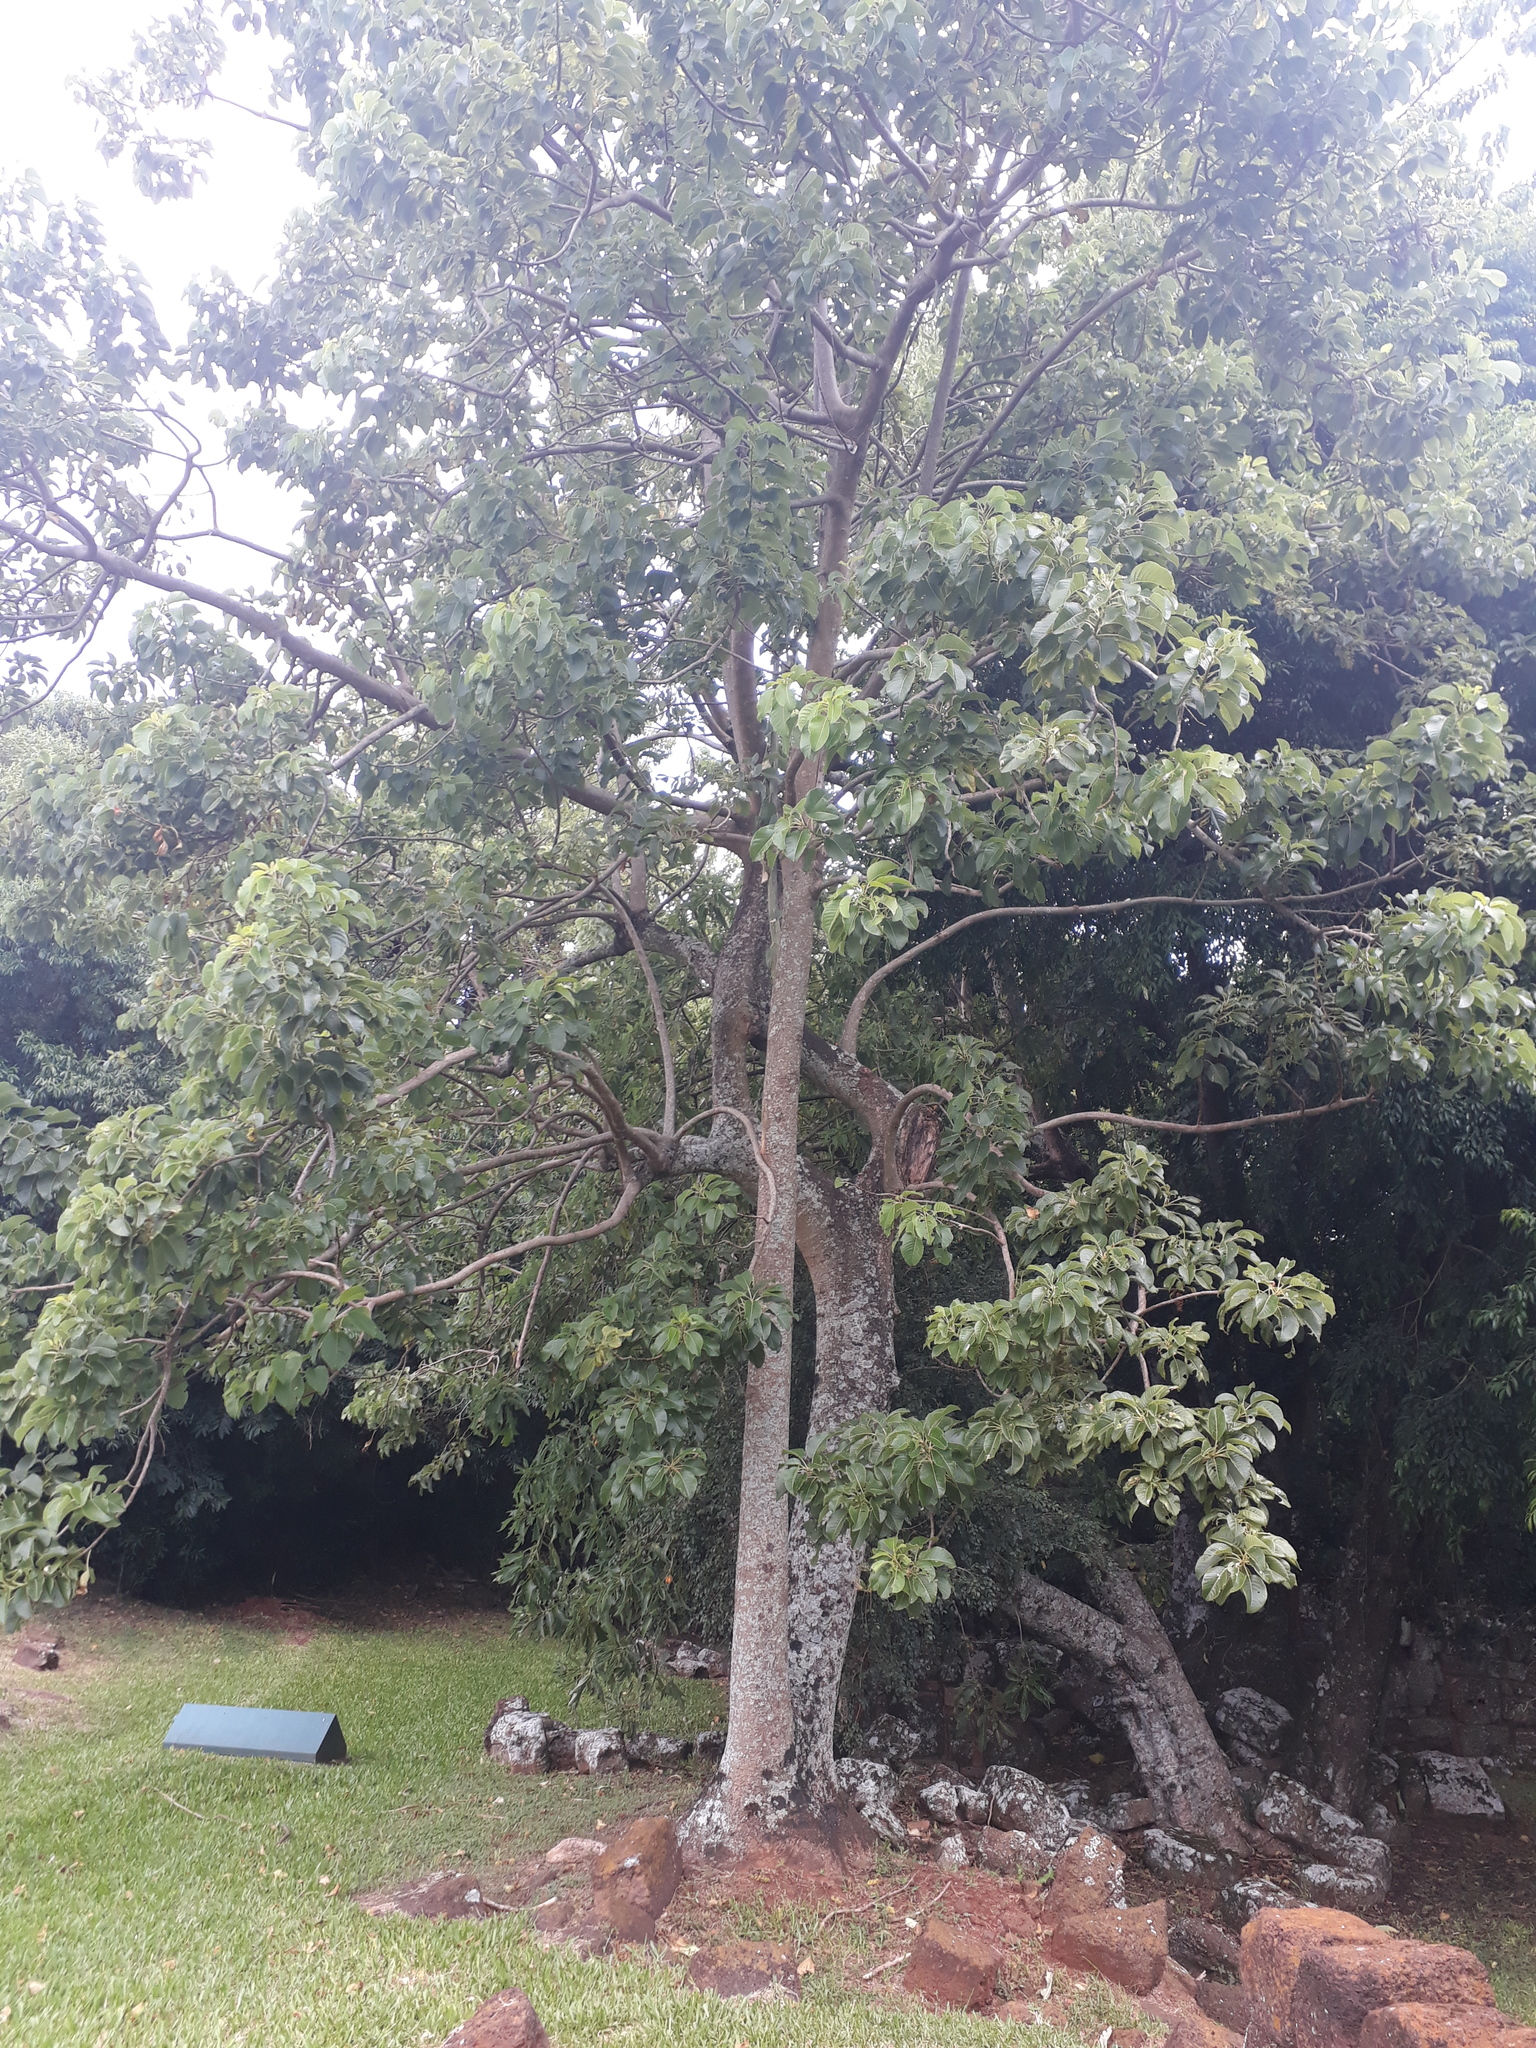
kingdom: Plantae
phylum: Tracheophyta
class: Magnoliopsida
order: Caryophyllales
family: Phytolaccaceae
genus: Phytolacca
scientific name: Phytolacca dioica
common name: Pokeweed
